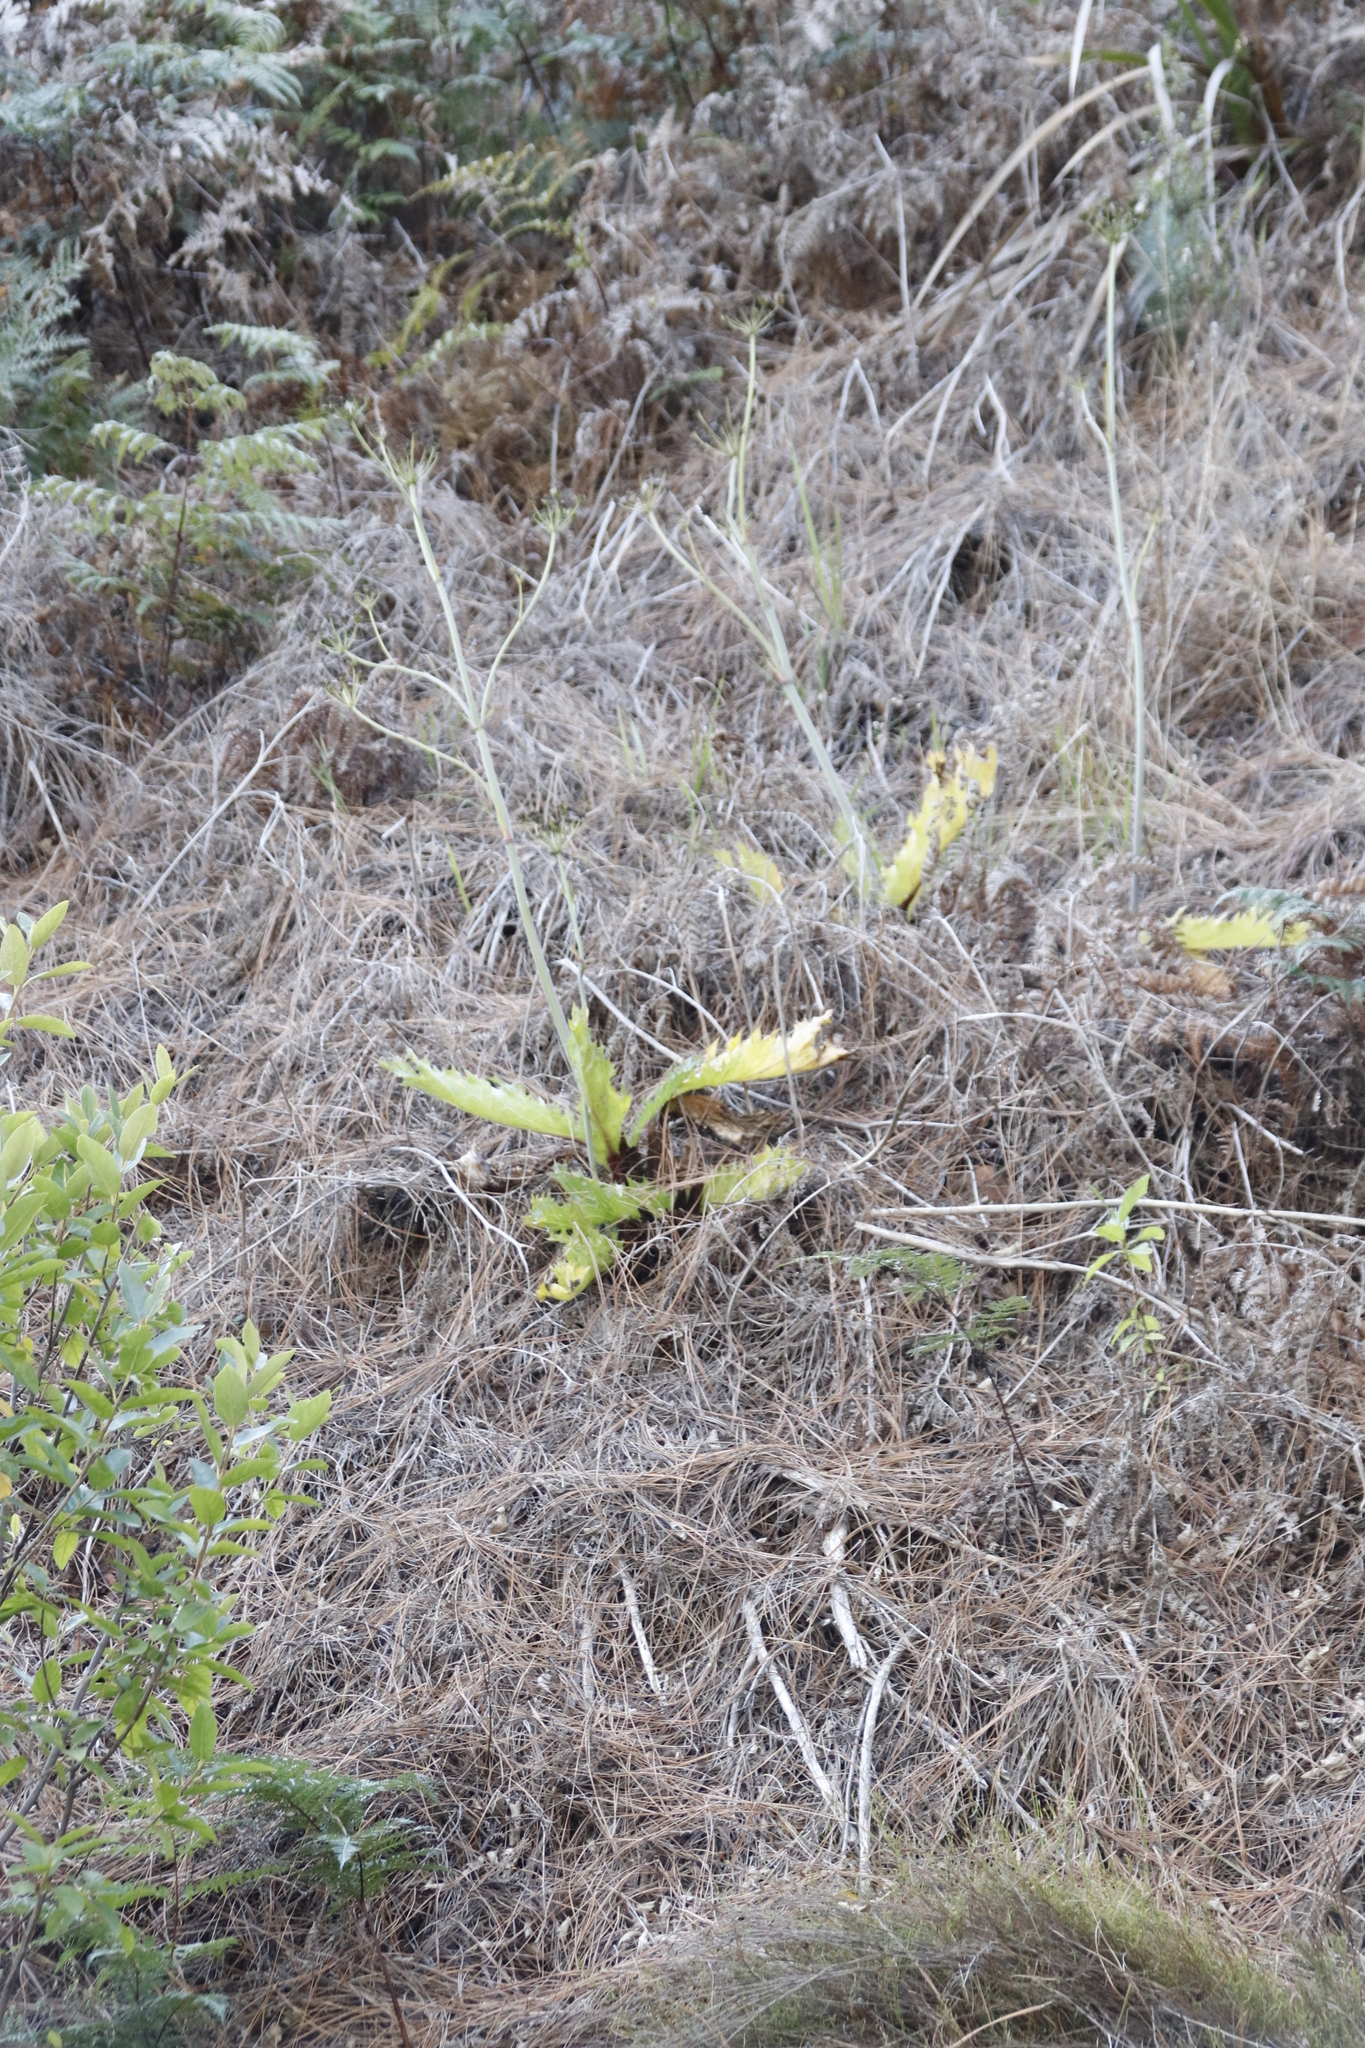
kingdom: Plantae
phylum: Tracheophyta
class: Magnoliopsida
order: Apiales
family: Apiaceae
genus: Lichtensteinia
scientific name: Lichtensteinia lacera
